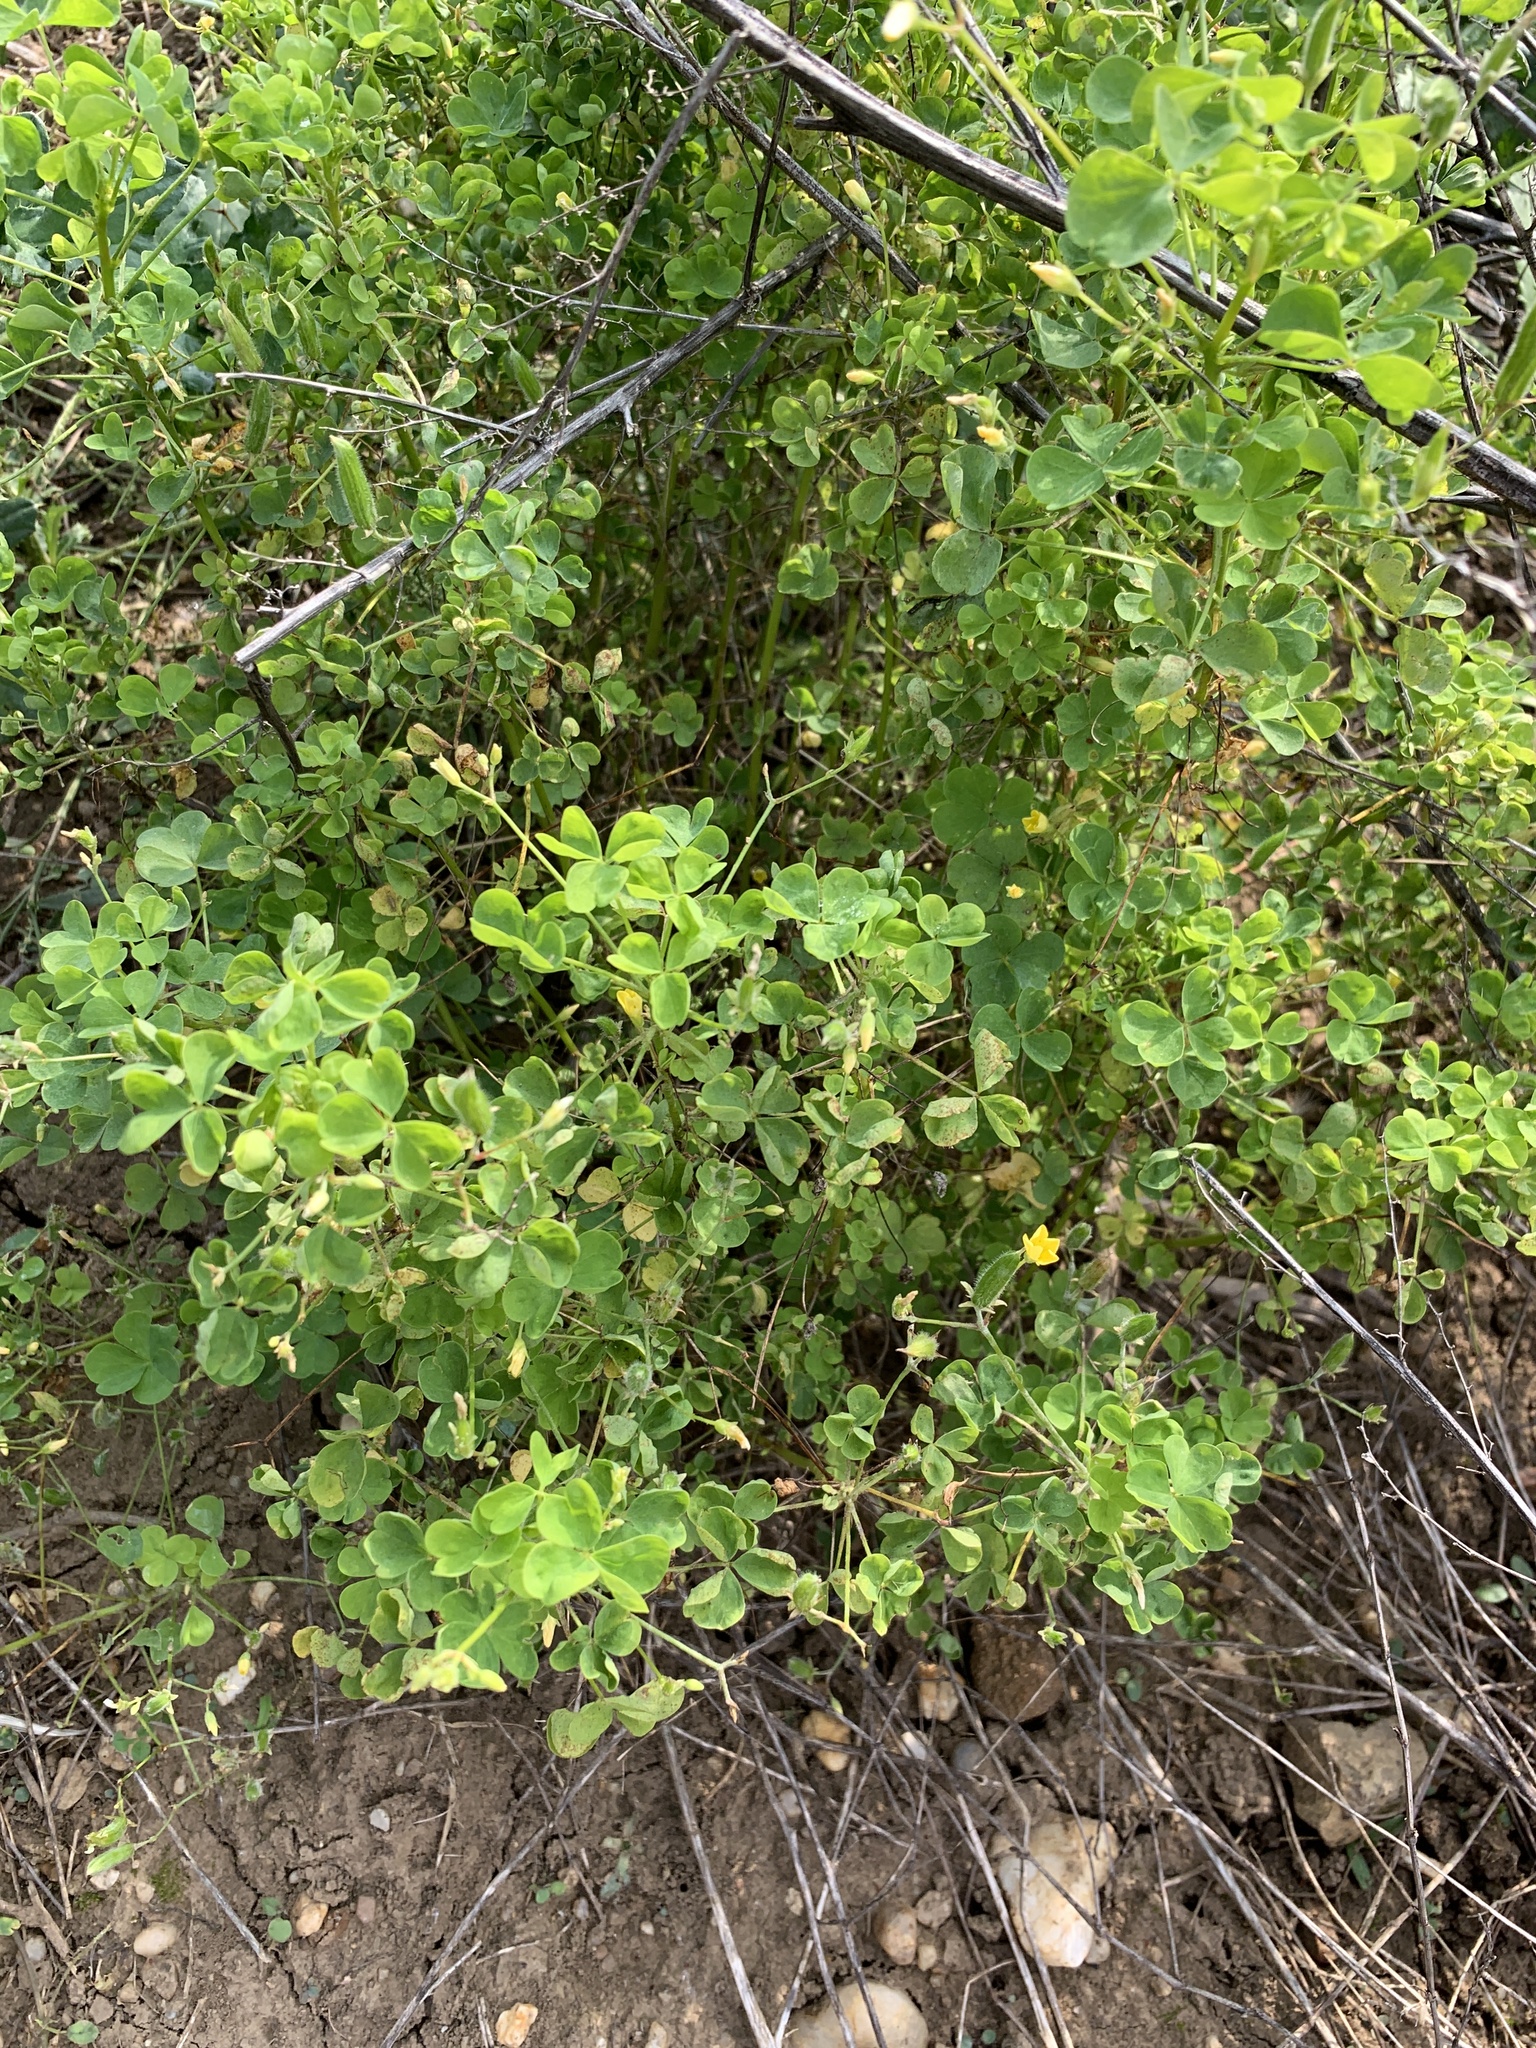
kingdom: Plantae
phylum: Tracheophyta
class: Magnoliopsida
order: Oxalidales
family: Oxalidaceae
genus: Oxalis
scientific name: Oxalis stricta
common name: Upright yellow-sorrel
